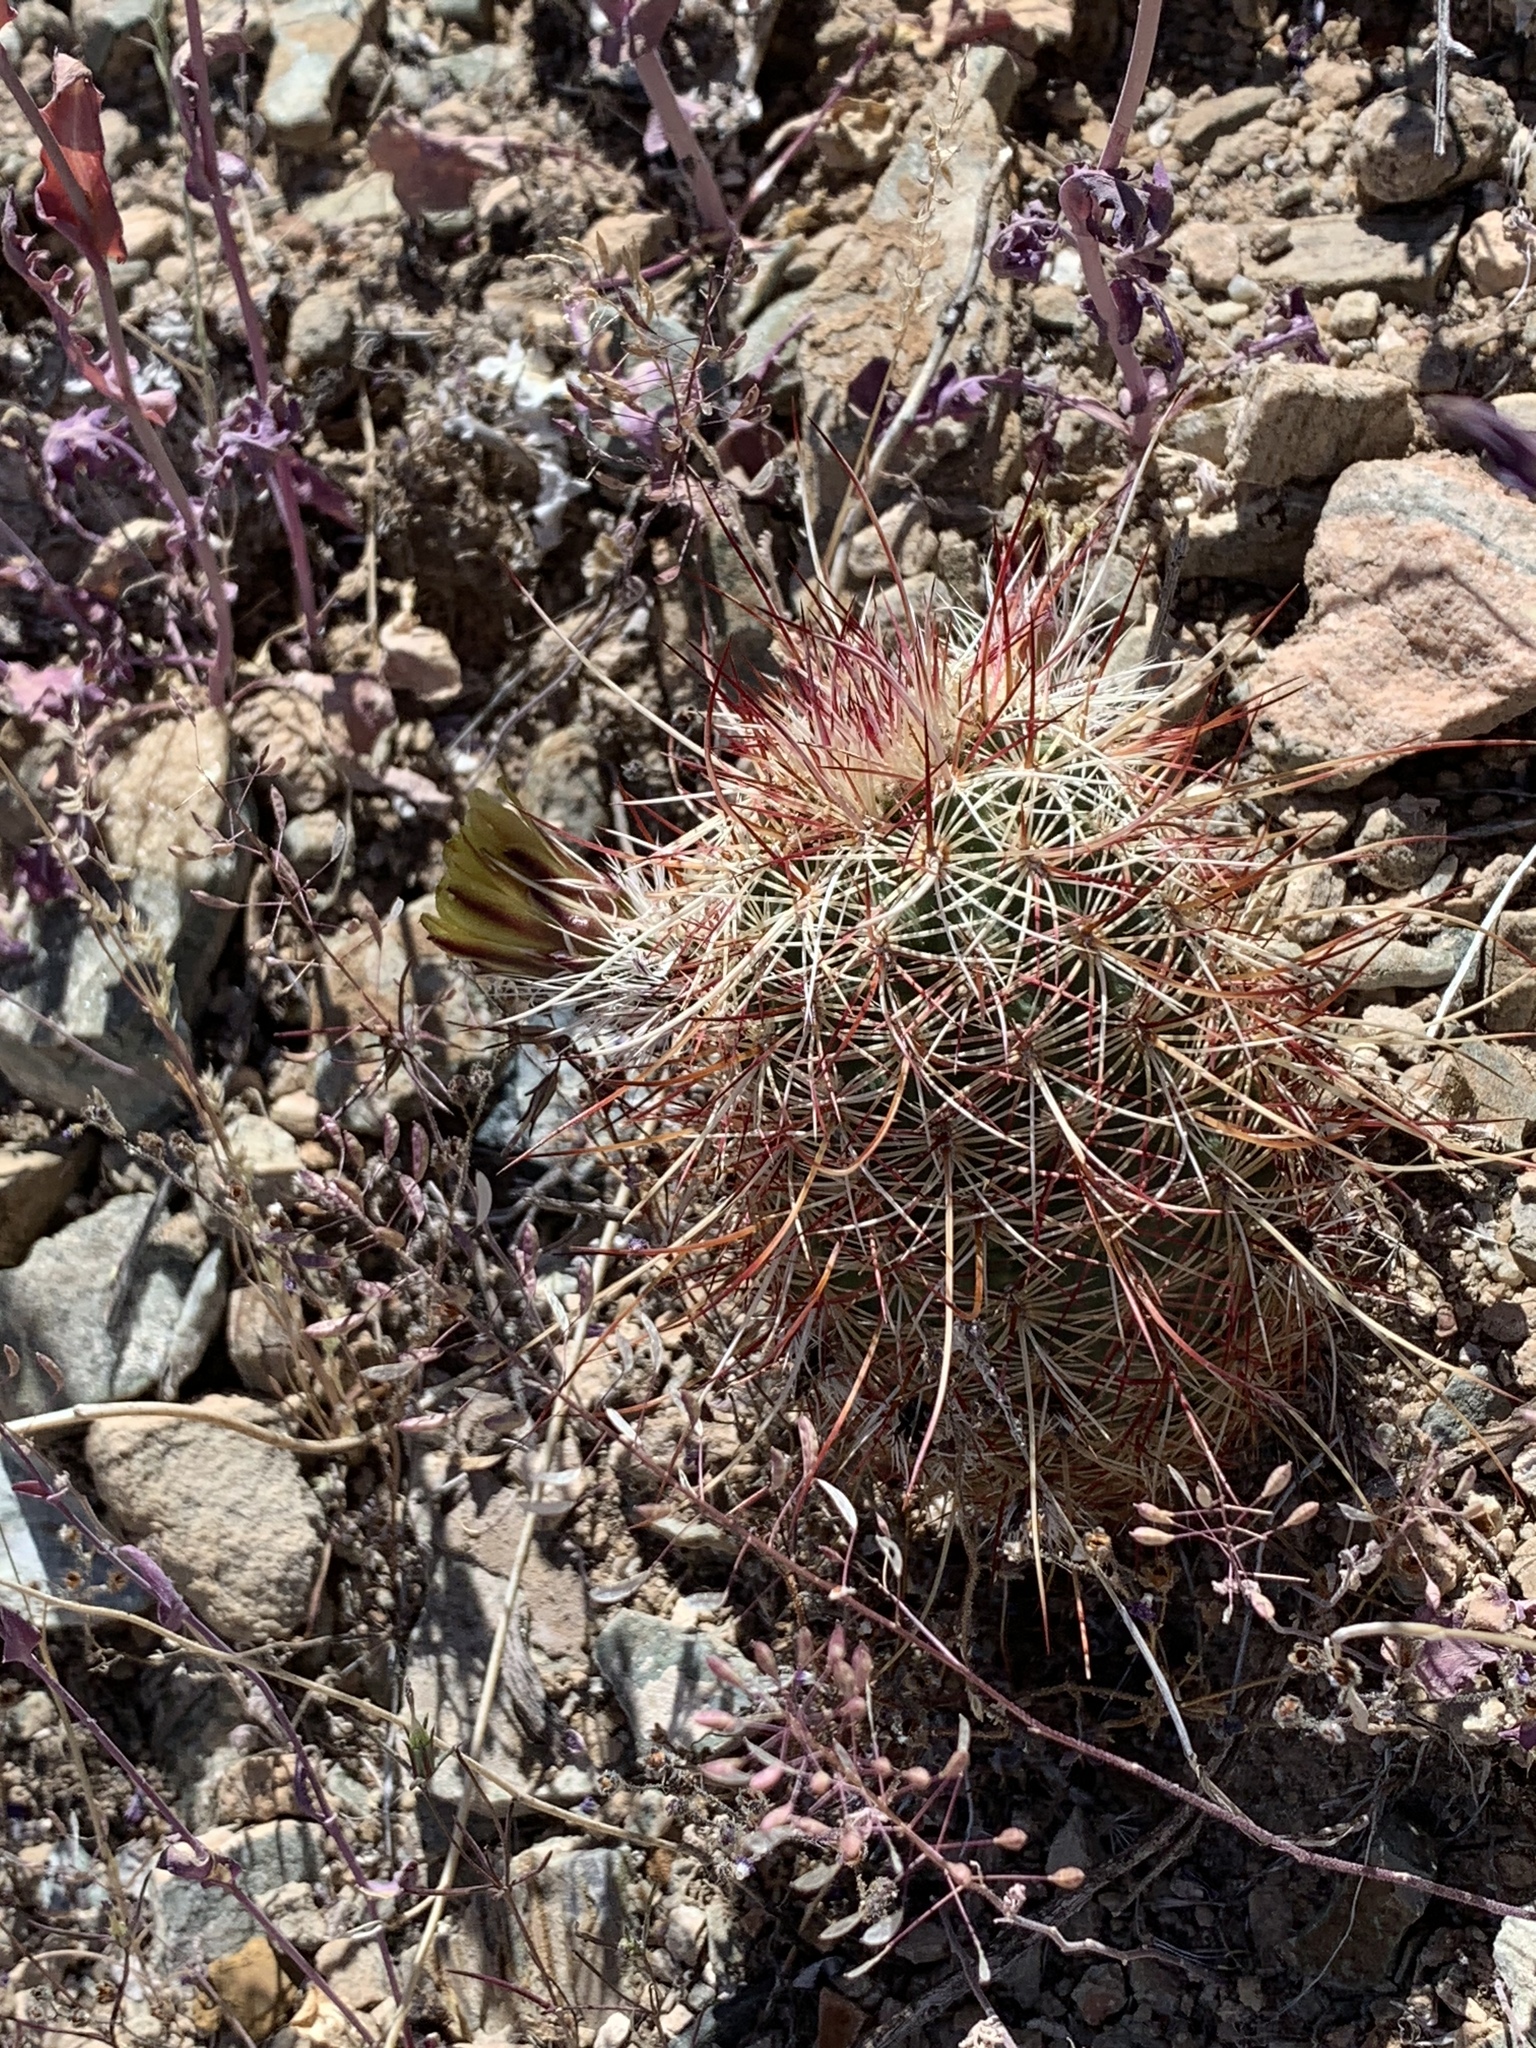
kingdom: Plantae
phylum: Tracheophyta
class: Magnoliopsida
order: Caryophyllales
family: Cactaceae
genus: Echinocereus
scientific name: Echinocereus viridiflorus
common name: Nylon hedgehog cactus
